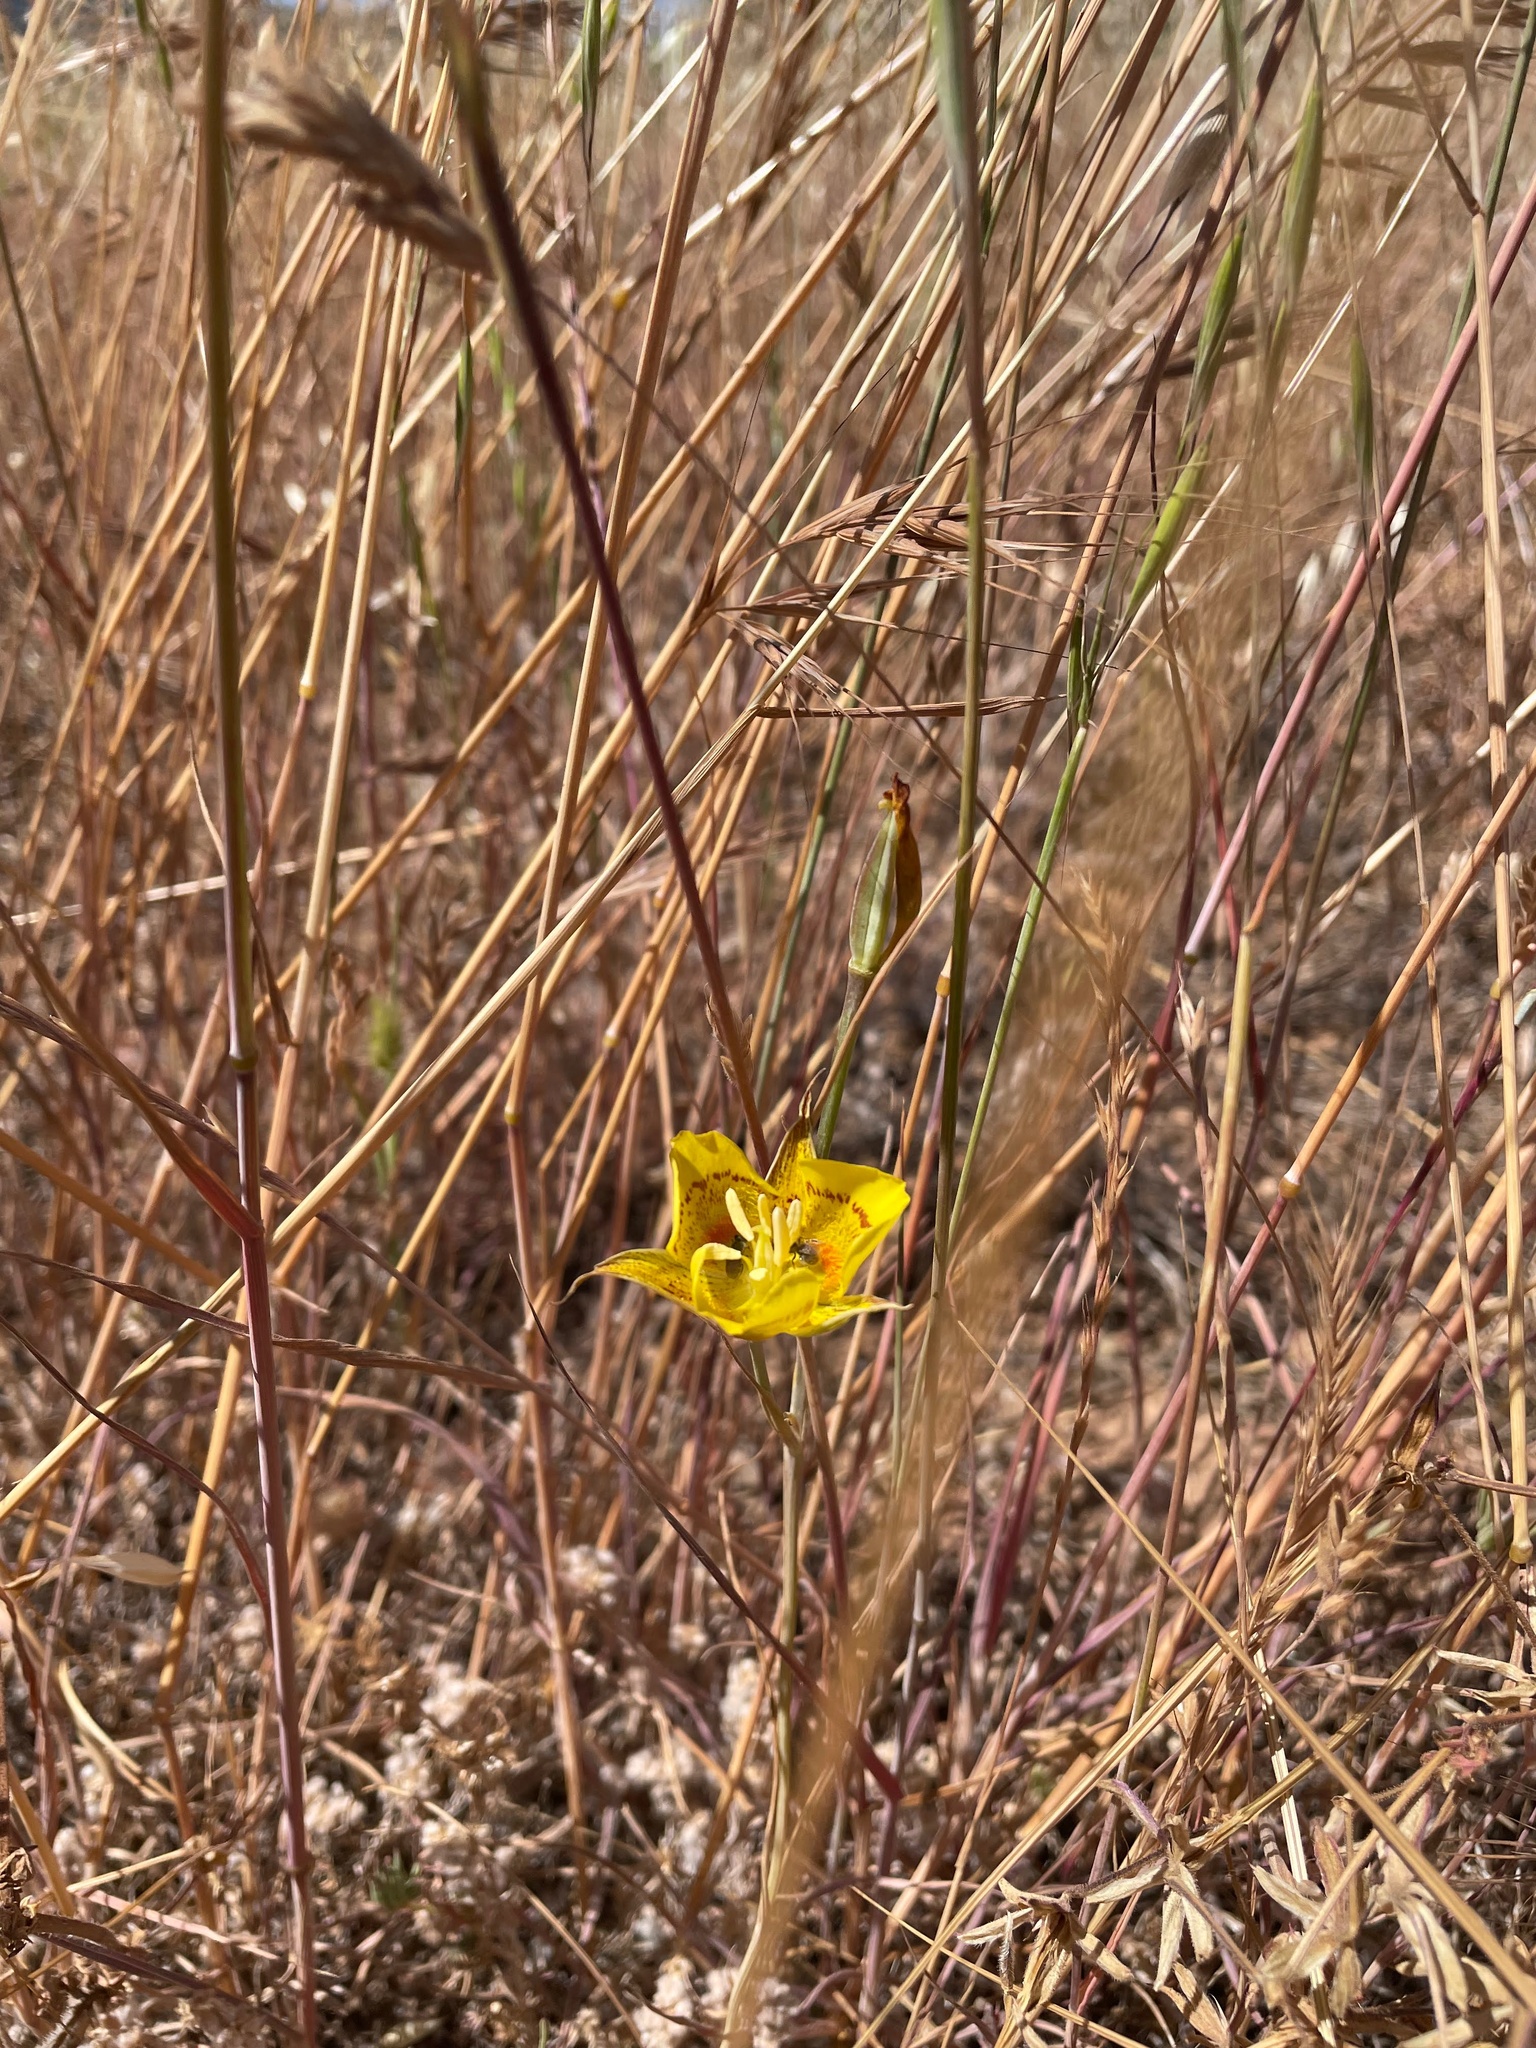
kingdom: Plantae
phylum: Tracheophyta
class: Liliopsida
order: Liliales
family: Liliaceae
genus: Calochortus
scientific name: Calochortus luteus
